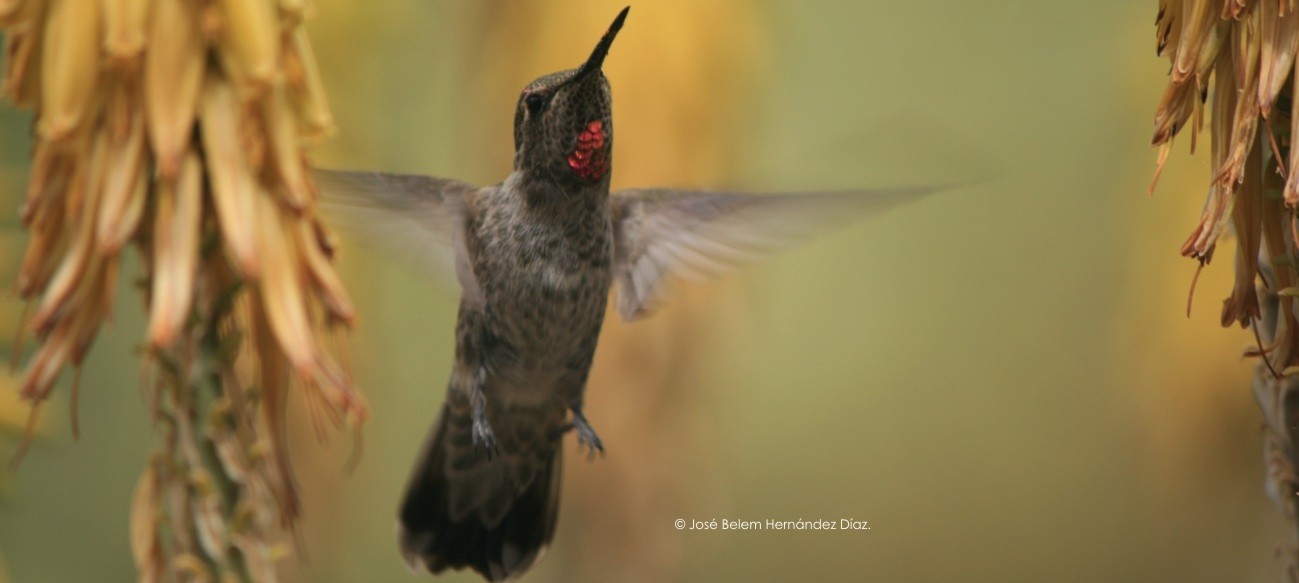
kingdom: Animalia
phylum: Chordata
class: Aves
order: Apodiformes
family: Trochilidae
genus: Calypte
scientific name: Calypte anna
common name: Anna's hummingbird
